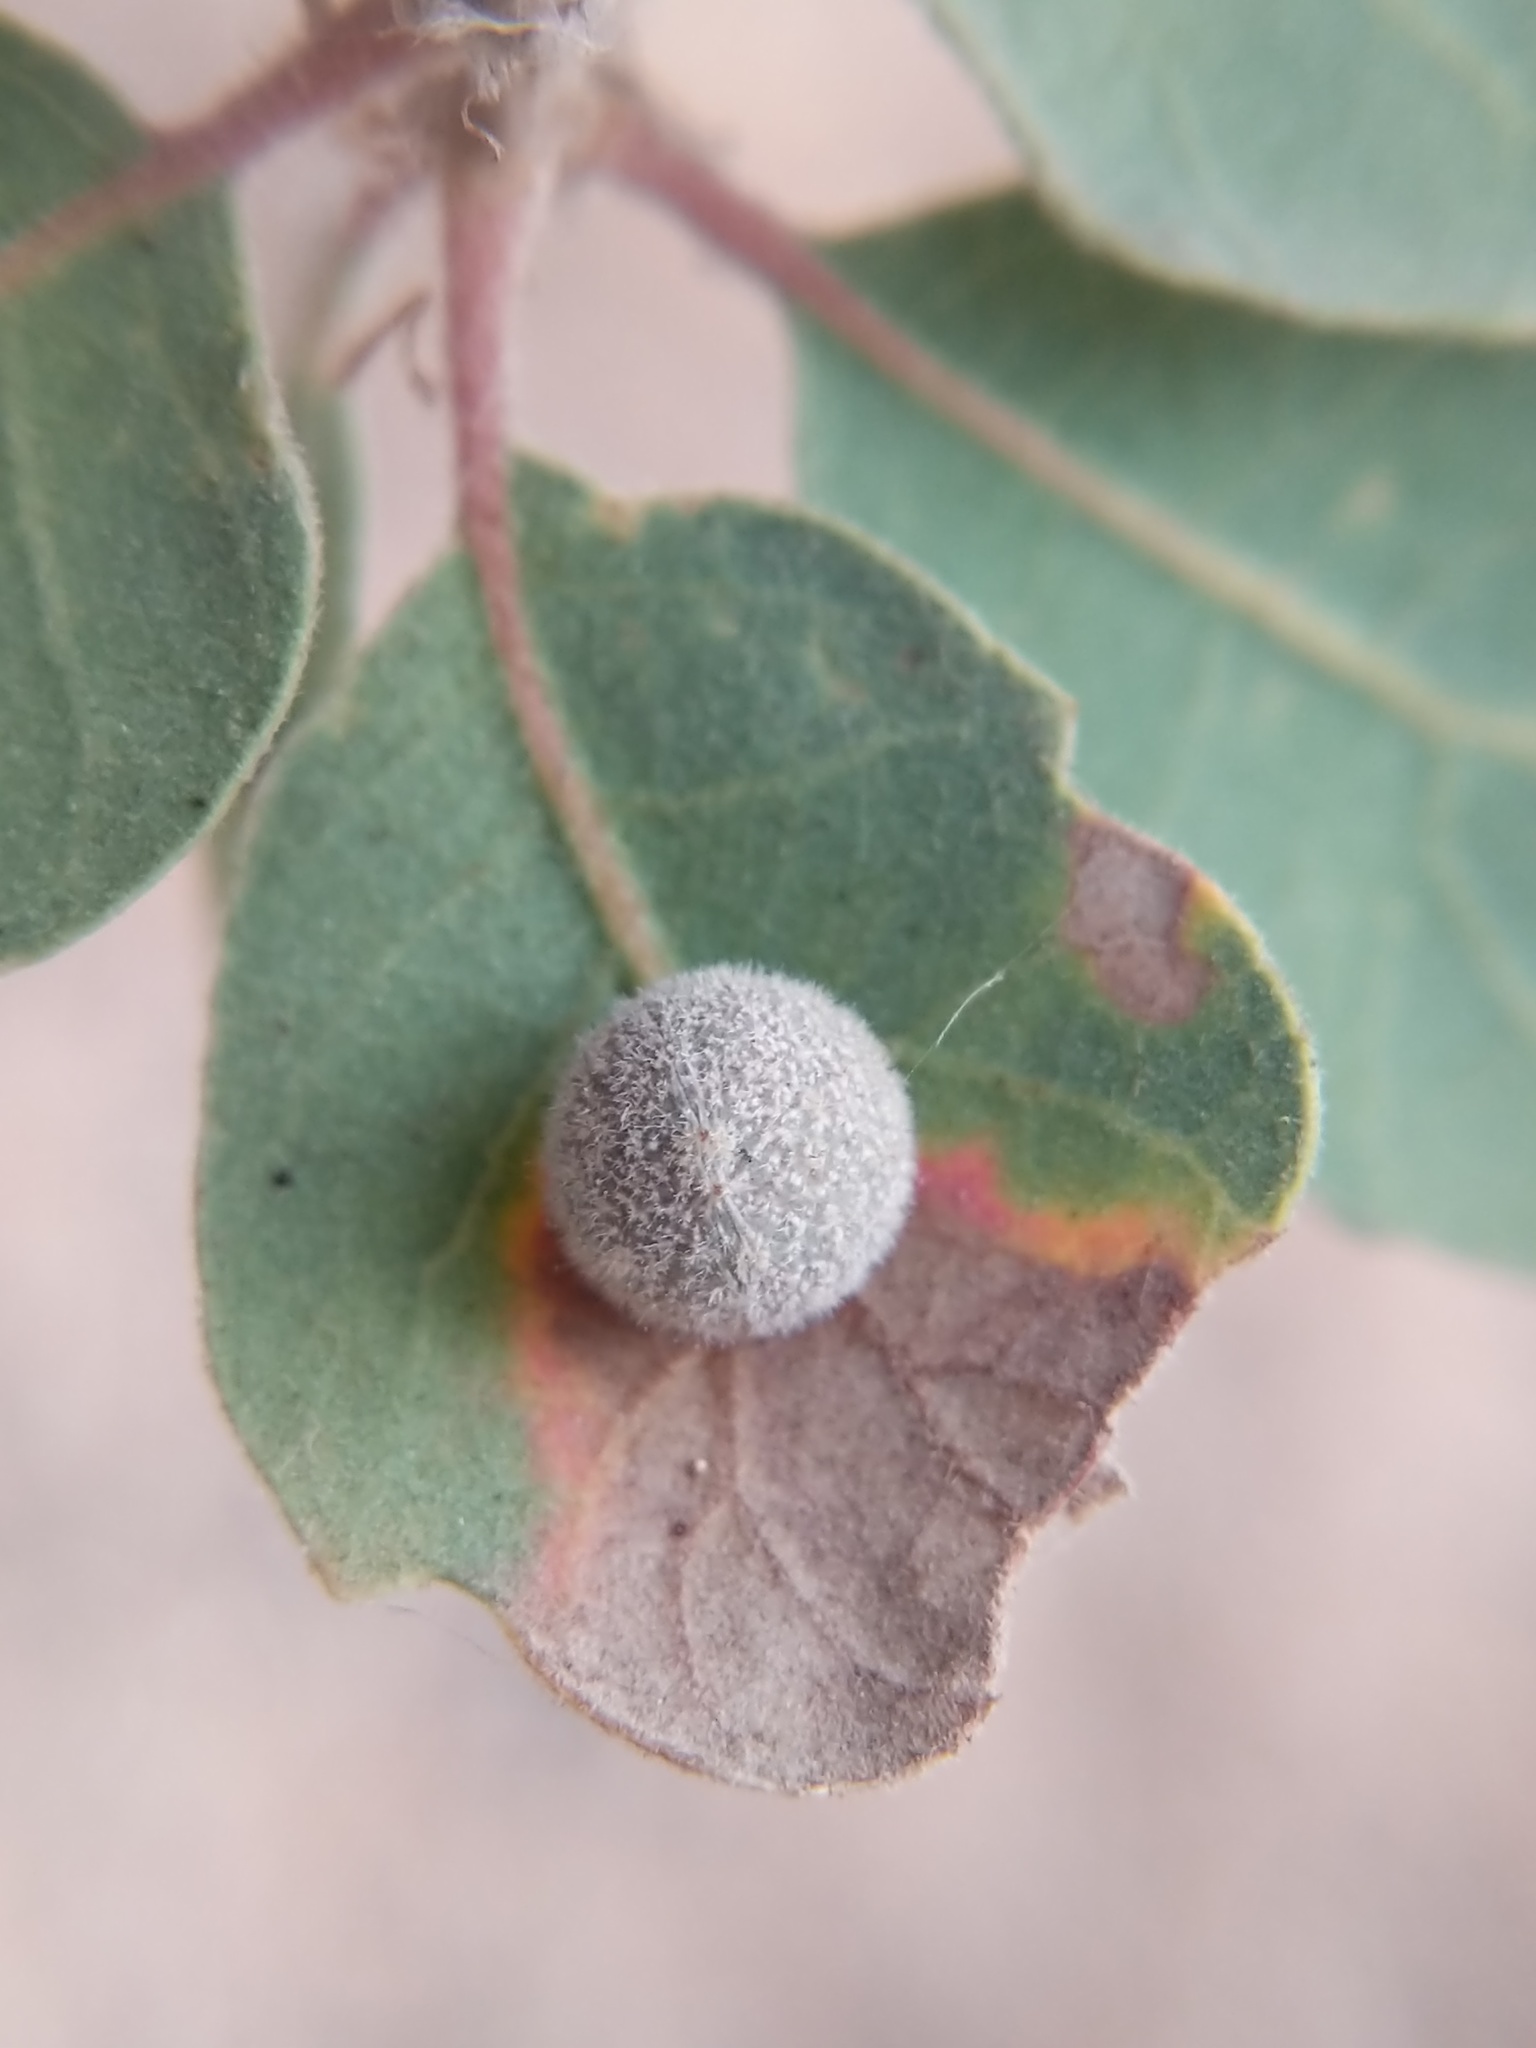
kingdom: Animalia
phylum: Arthropoda
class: Insecta
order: Hymenoptera
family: Cynipidae
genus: Cynips
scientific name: Cynips
